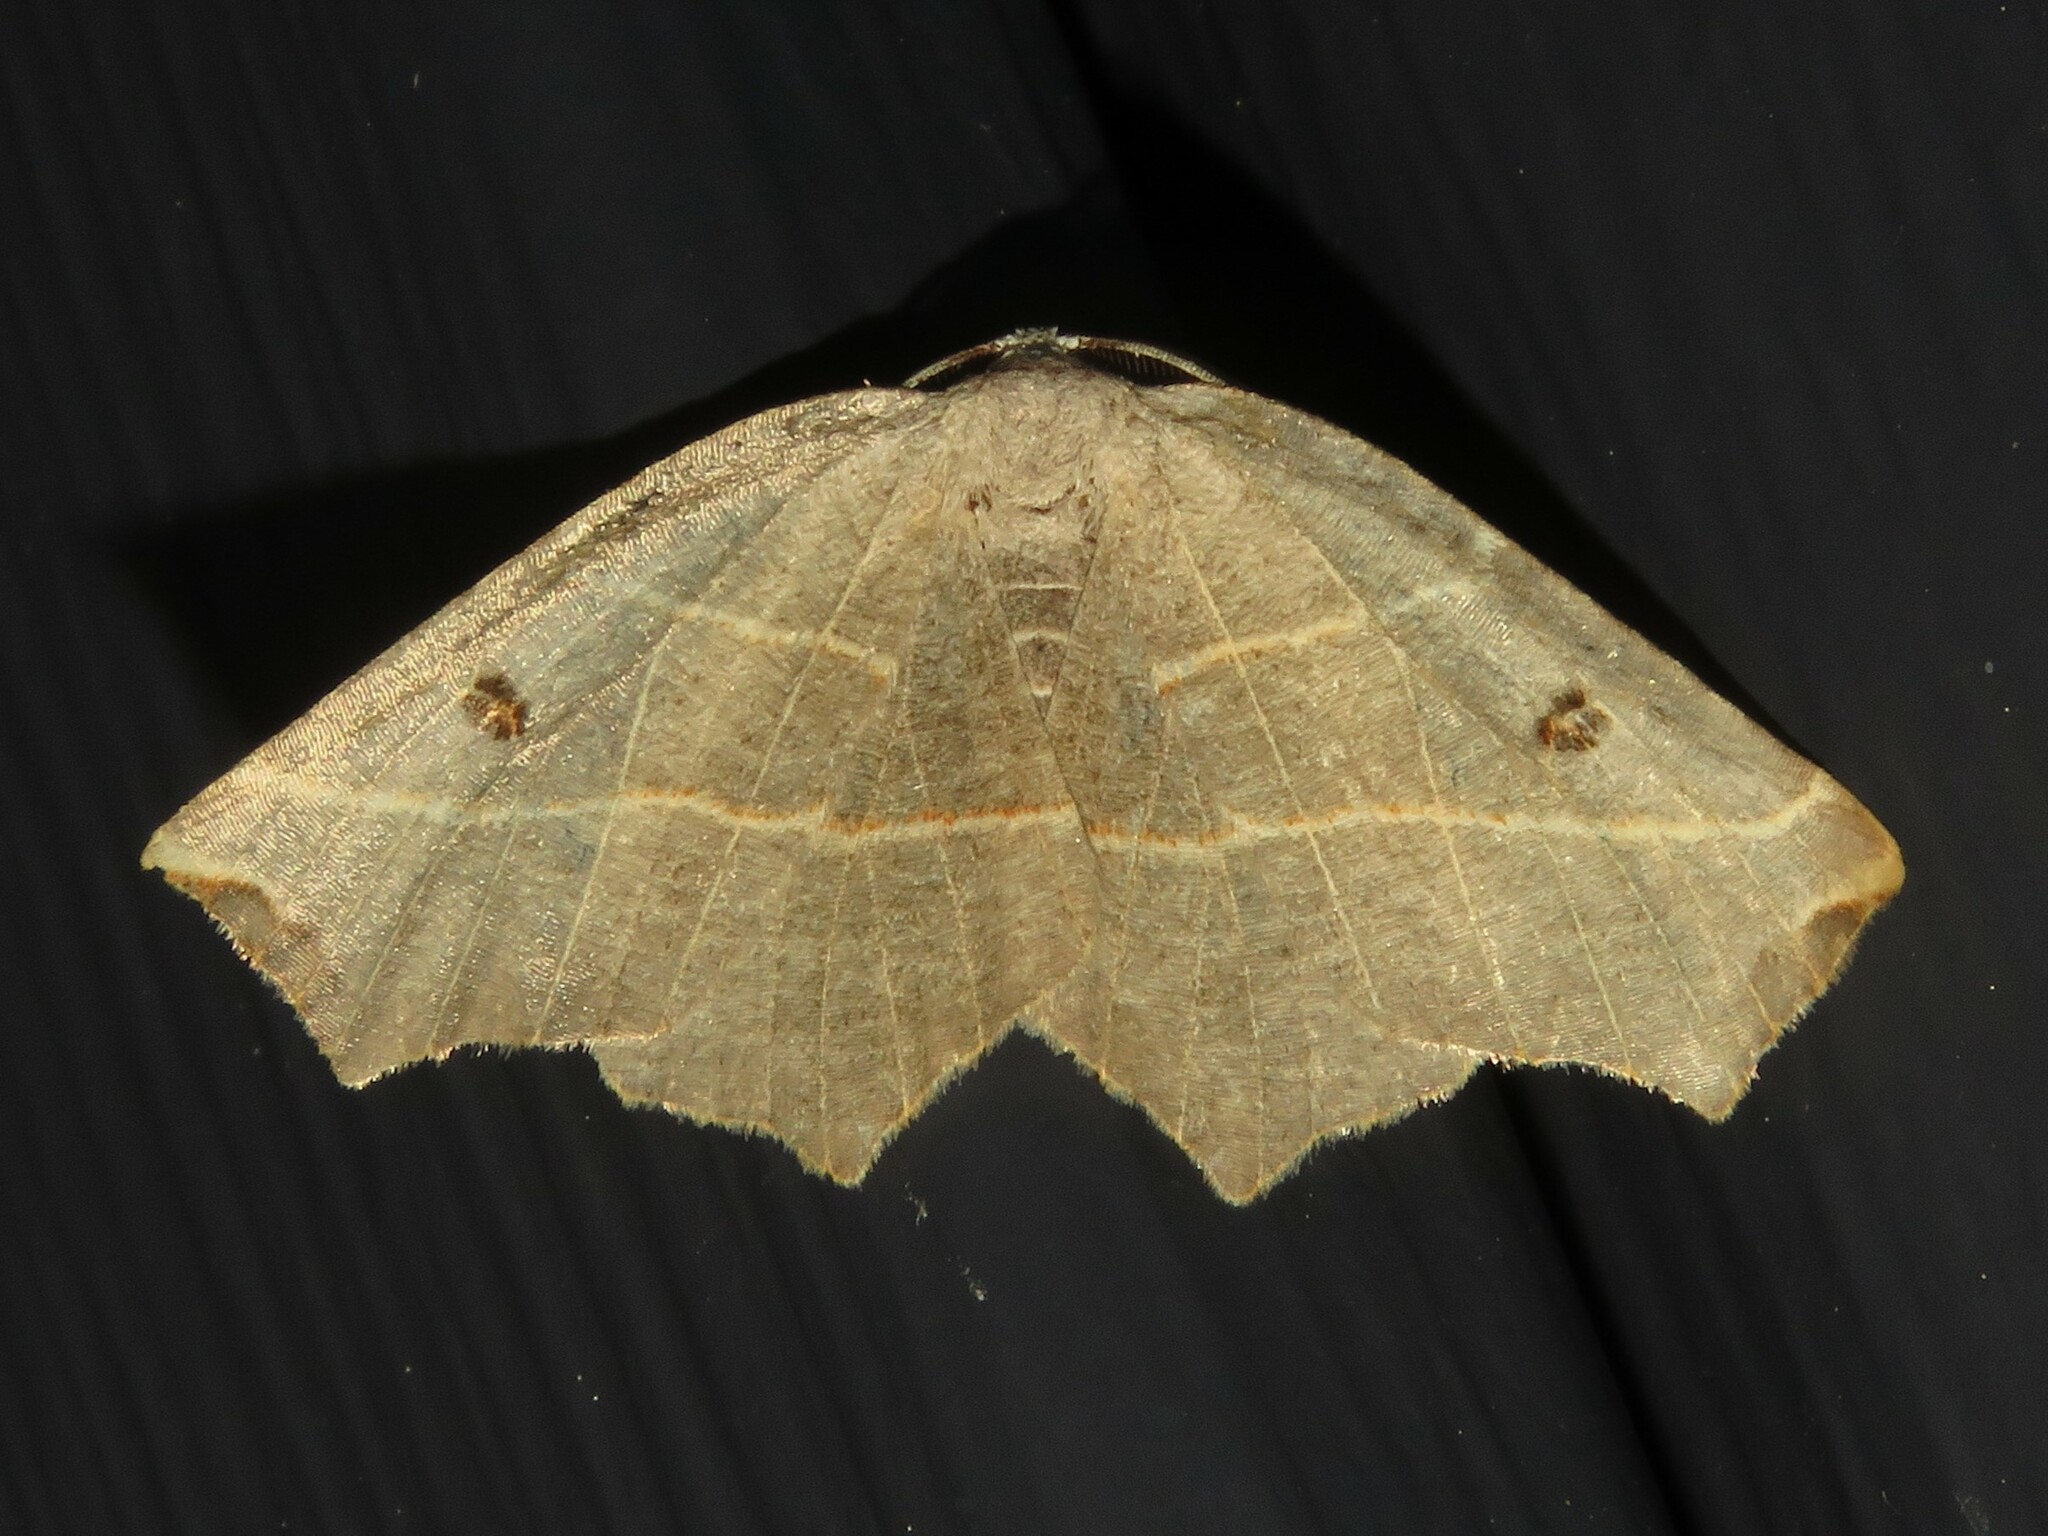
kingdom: Animalia
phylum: Arthropoda
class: Insecta
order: Lepidoptera
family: Geometridae
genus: Metanema
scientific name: Metanema inatomaria
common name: Pale metanema
